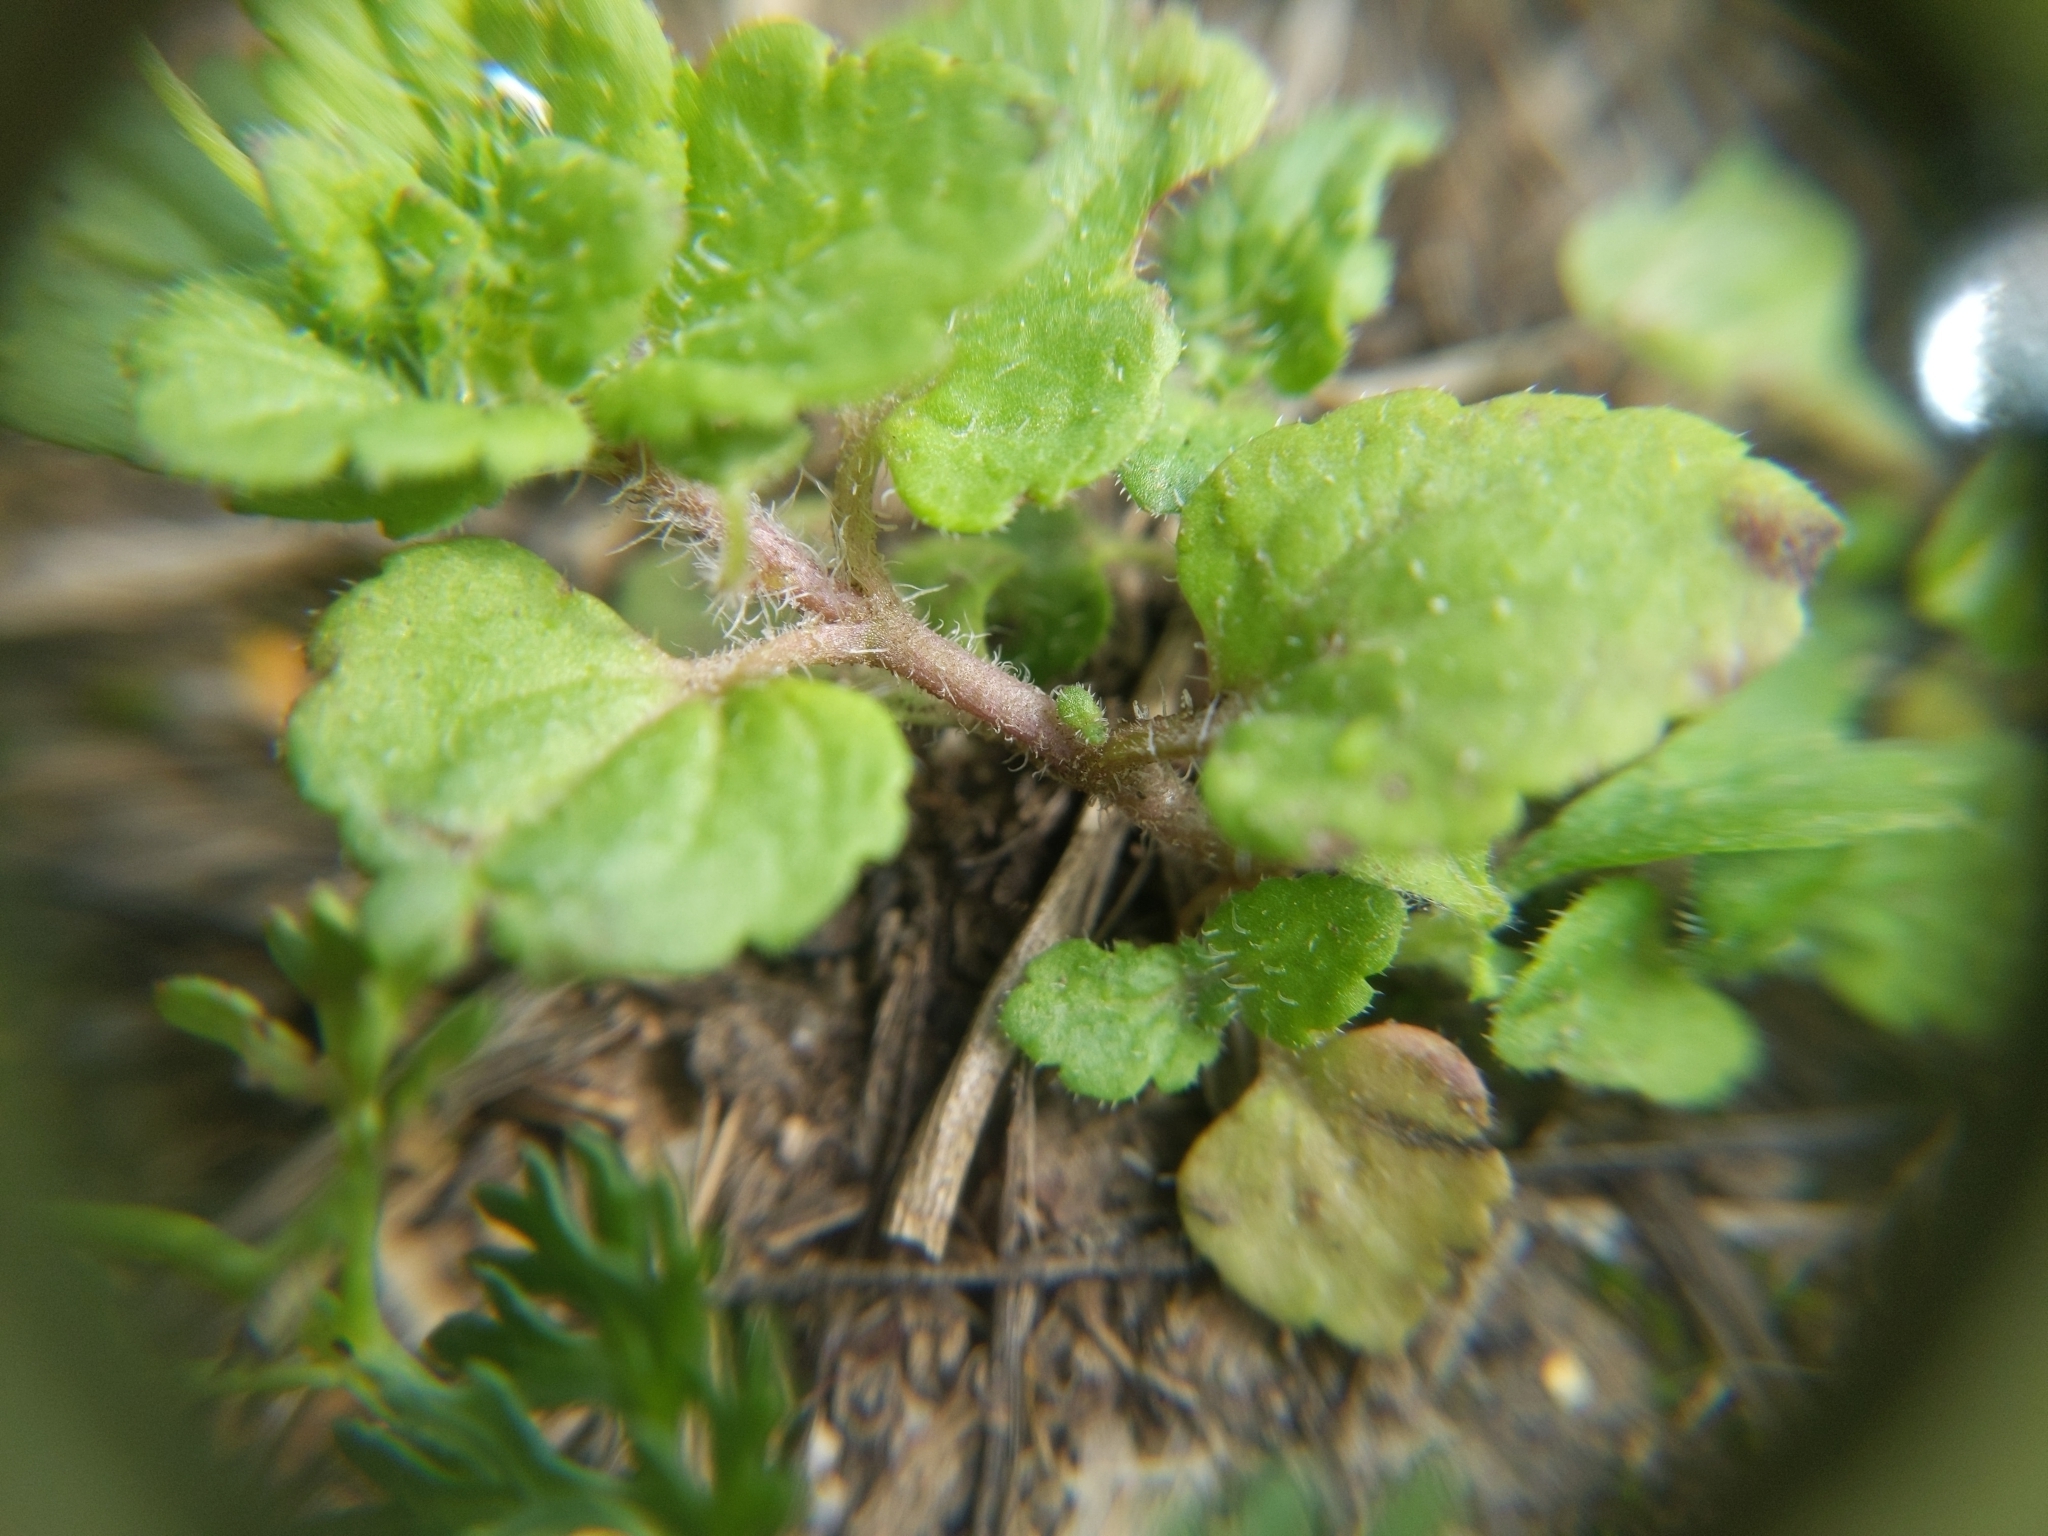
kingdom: Plantae
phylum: Tracheophyta
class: Magnoliopsida
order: Lamiales
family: Plantaginaceae
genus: Veronica
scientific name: Veronica persica
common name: Common field-speedwell
